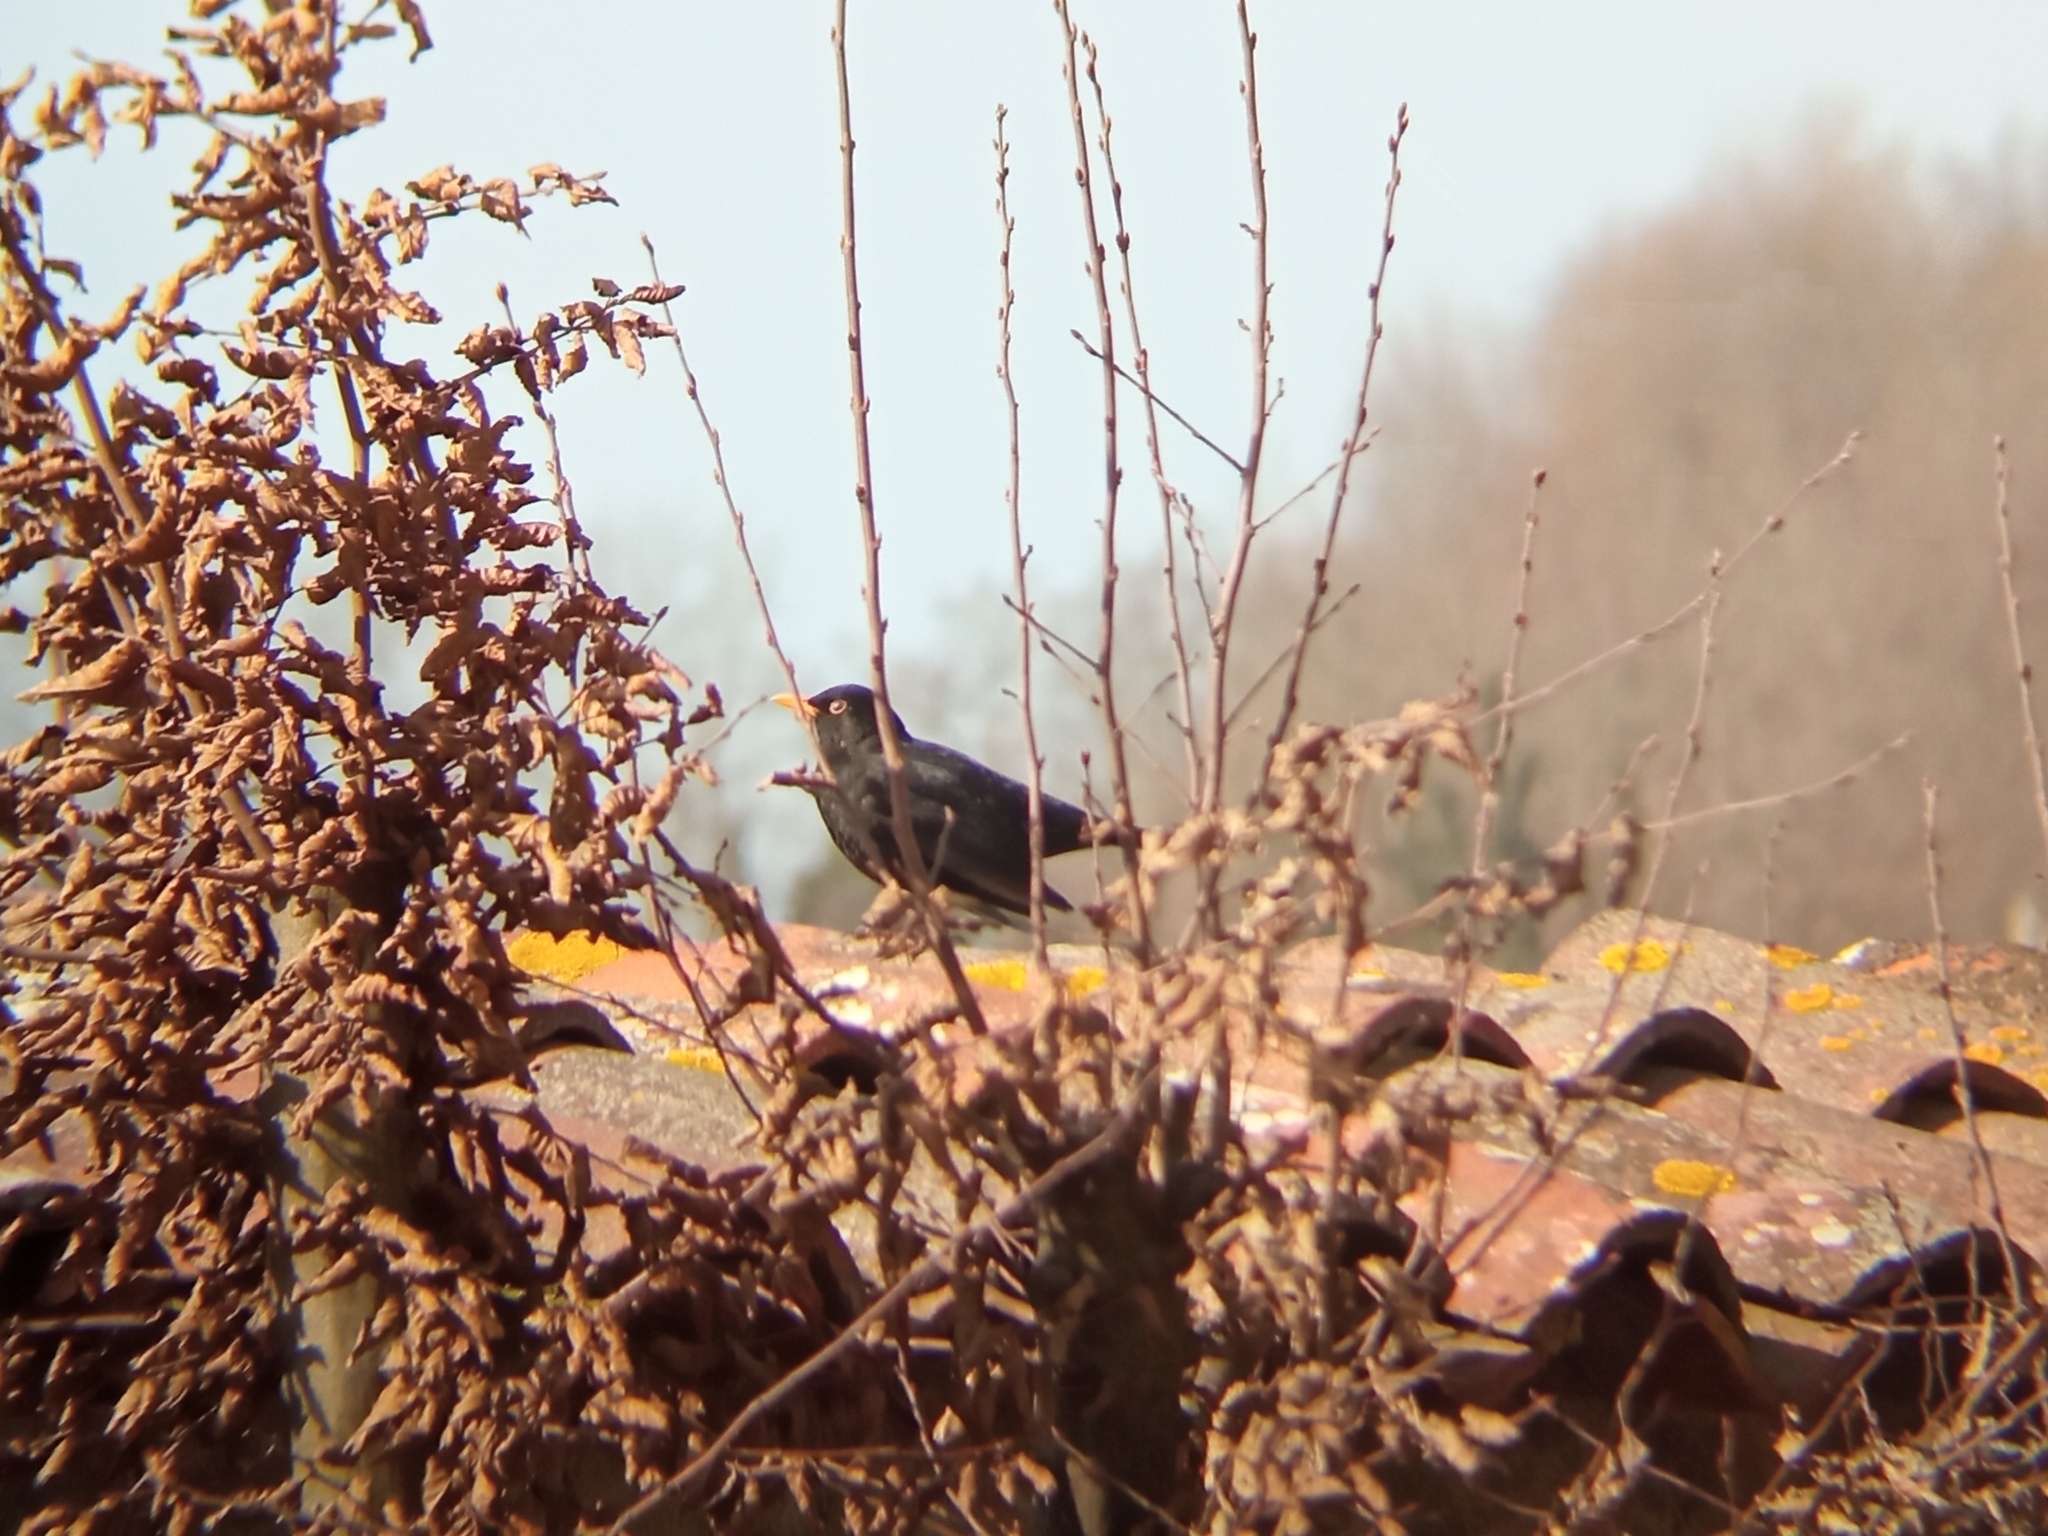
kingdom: Animalia
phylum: Chordata
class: Aves
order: Passeriformes
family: Turdidae
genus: Turdus
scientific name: Turdus merula
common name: Common blackbird
